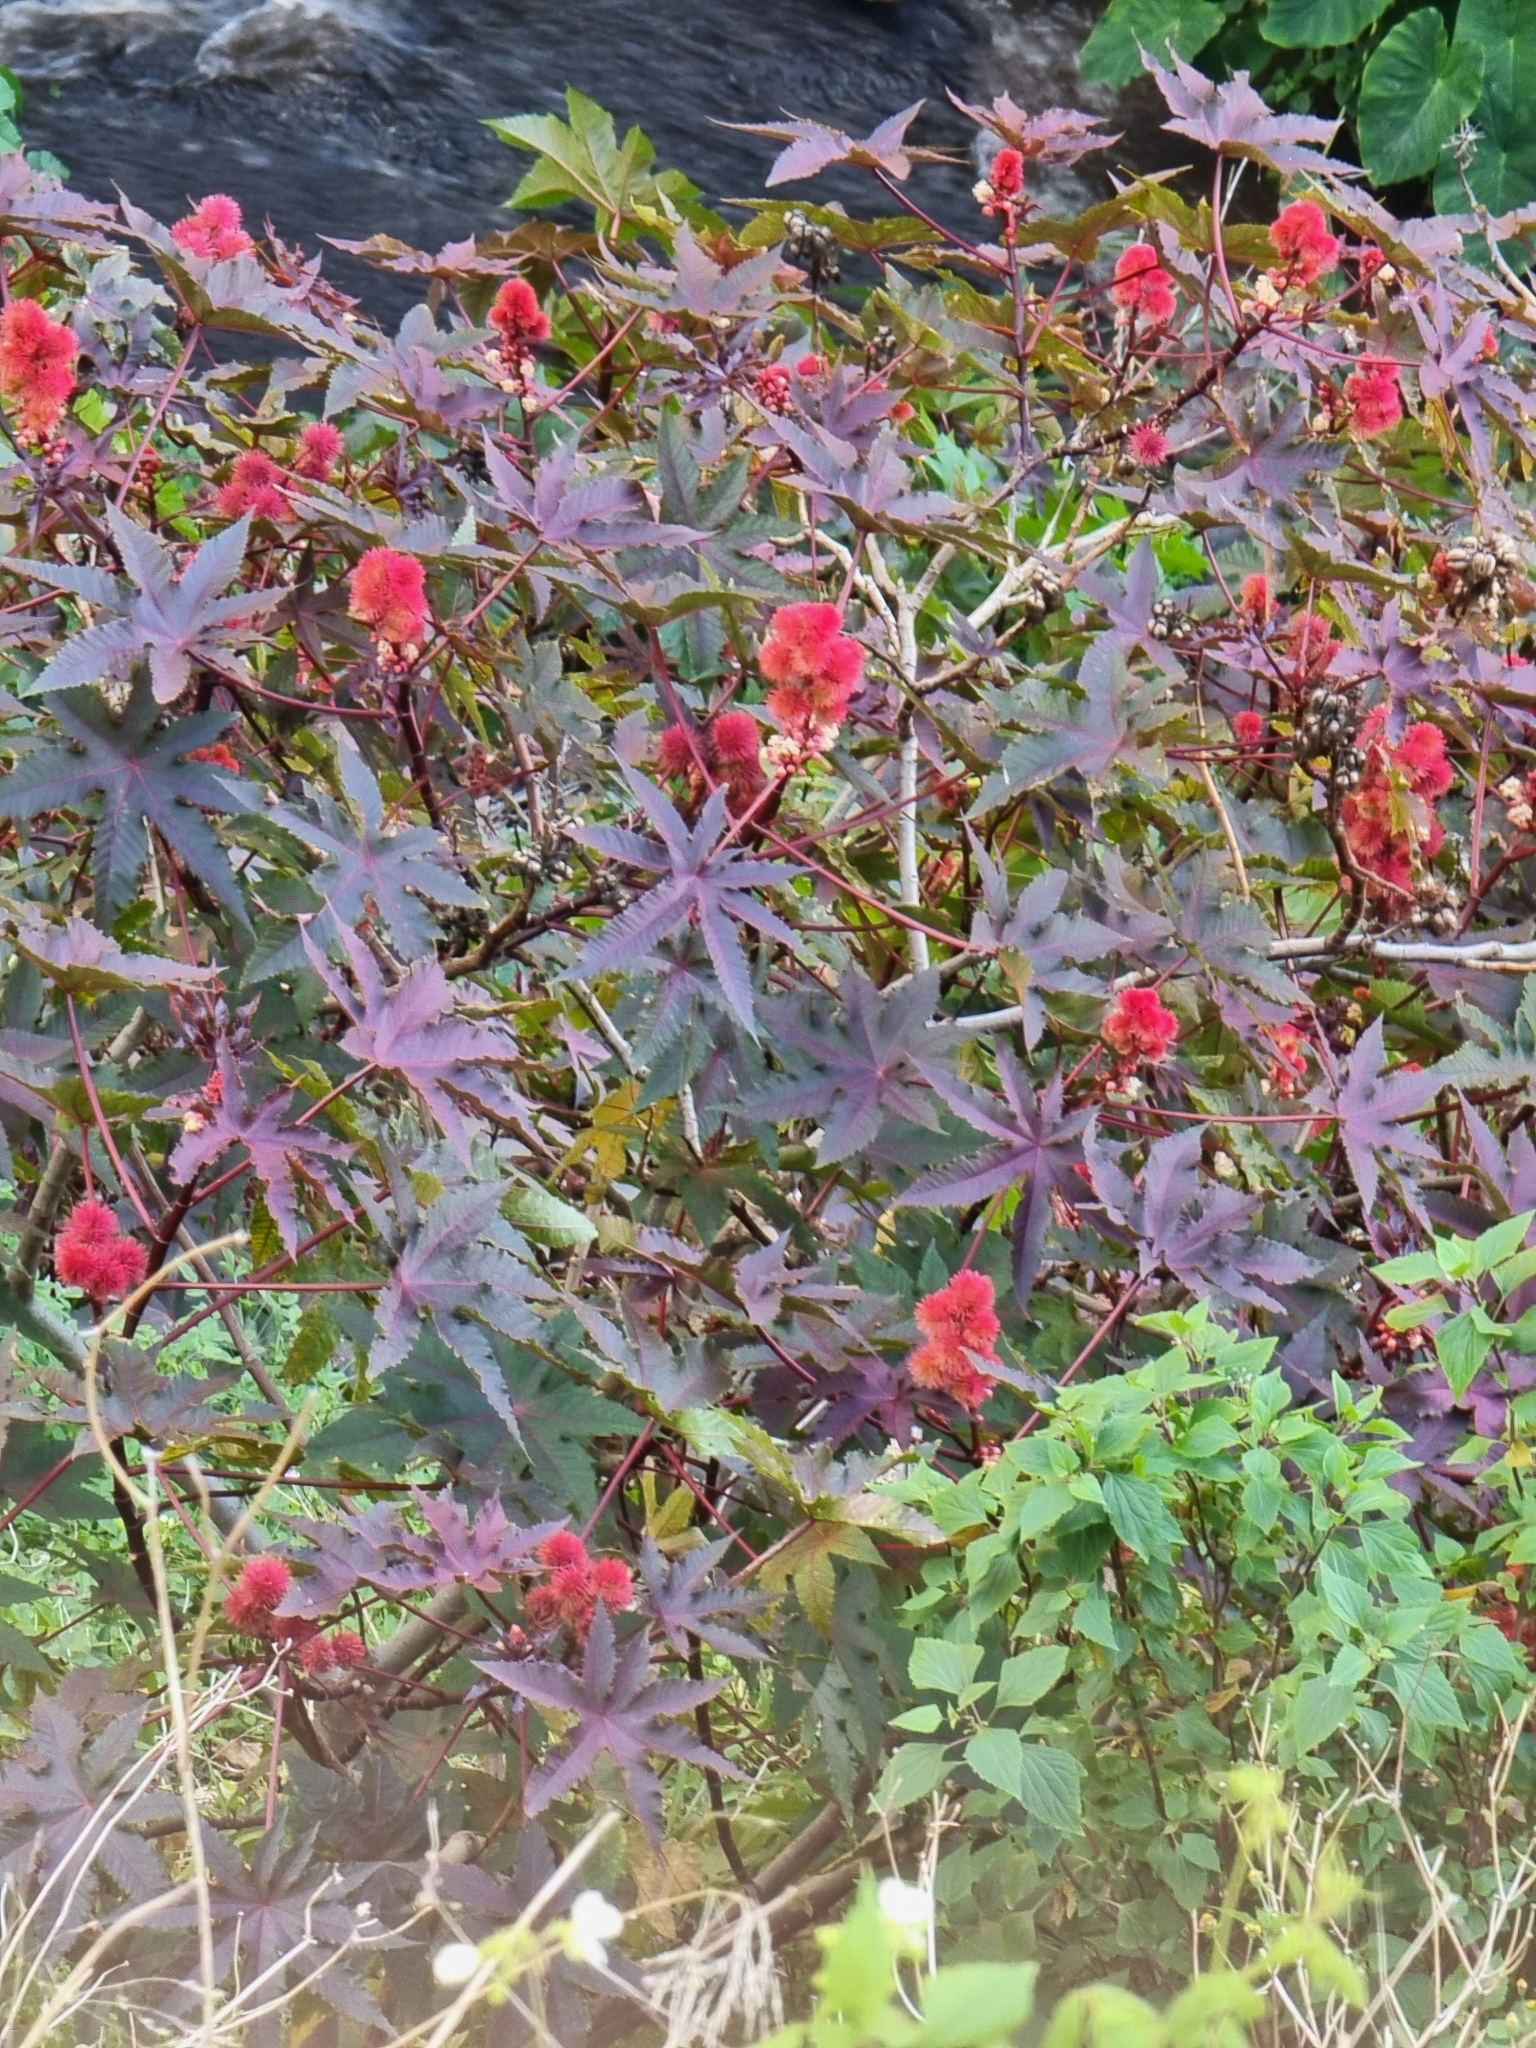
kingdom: Plantae
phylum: Tracheophyta
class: Magnoliopsida
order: Malpighiales
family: Euphorbiaceae
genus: Ricinus
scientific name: Ricinus communis
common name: Castor-oil-plant
